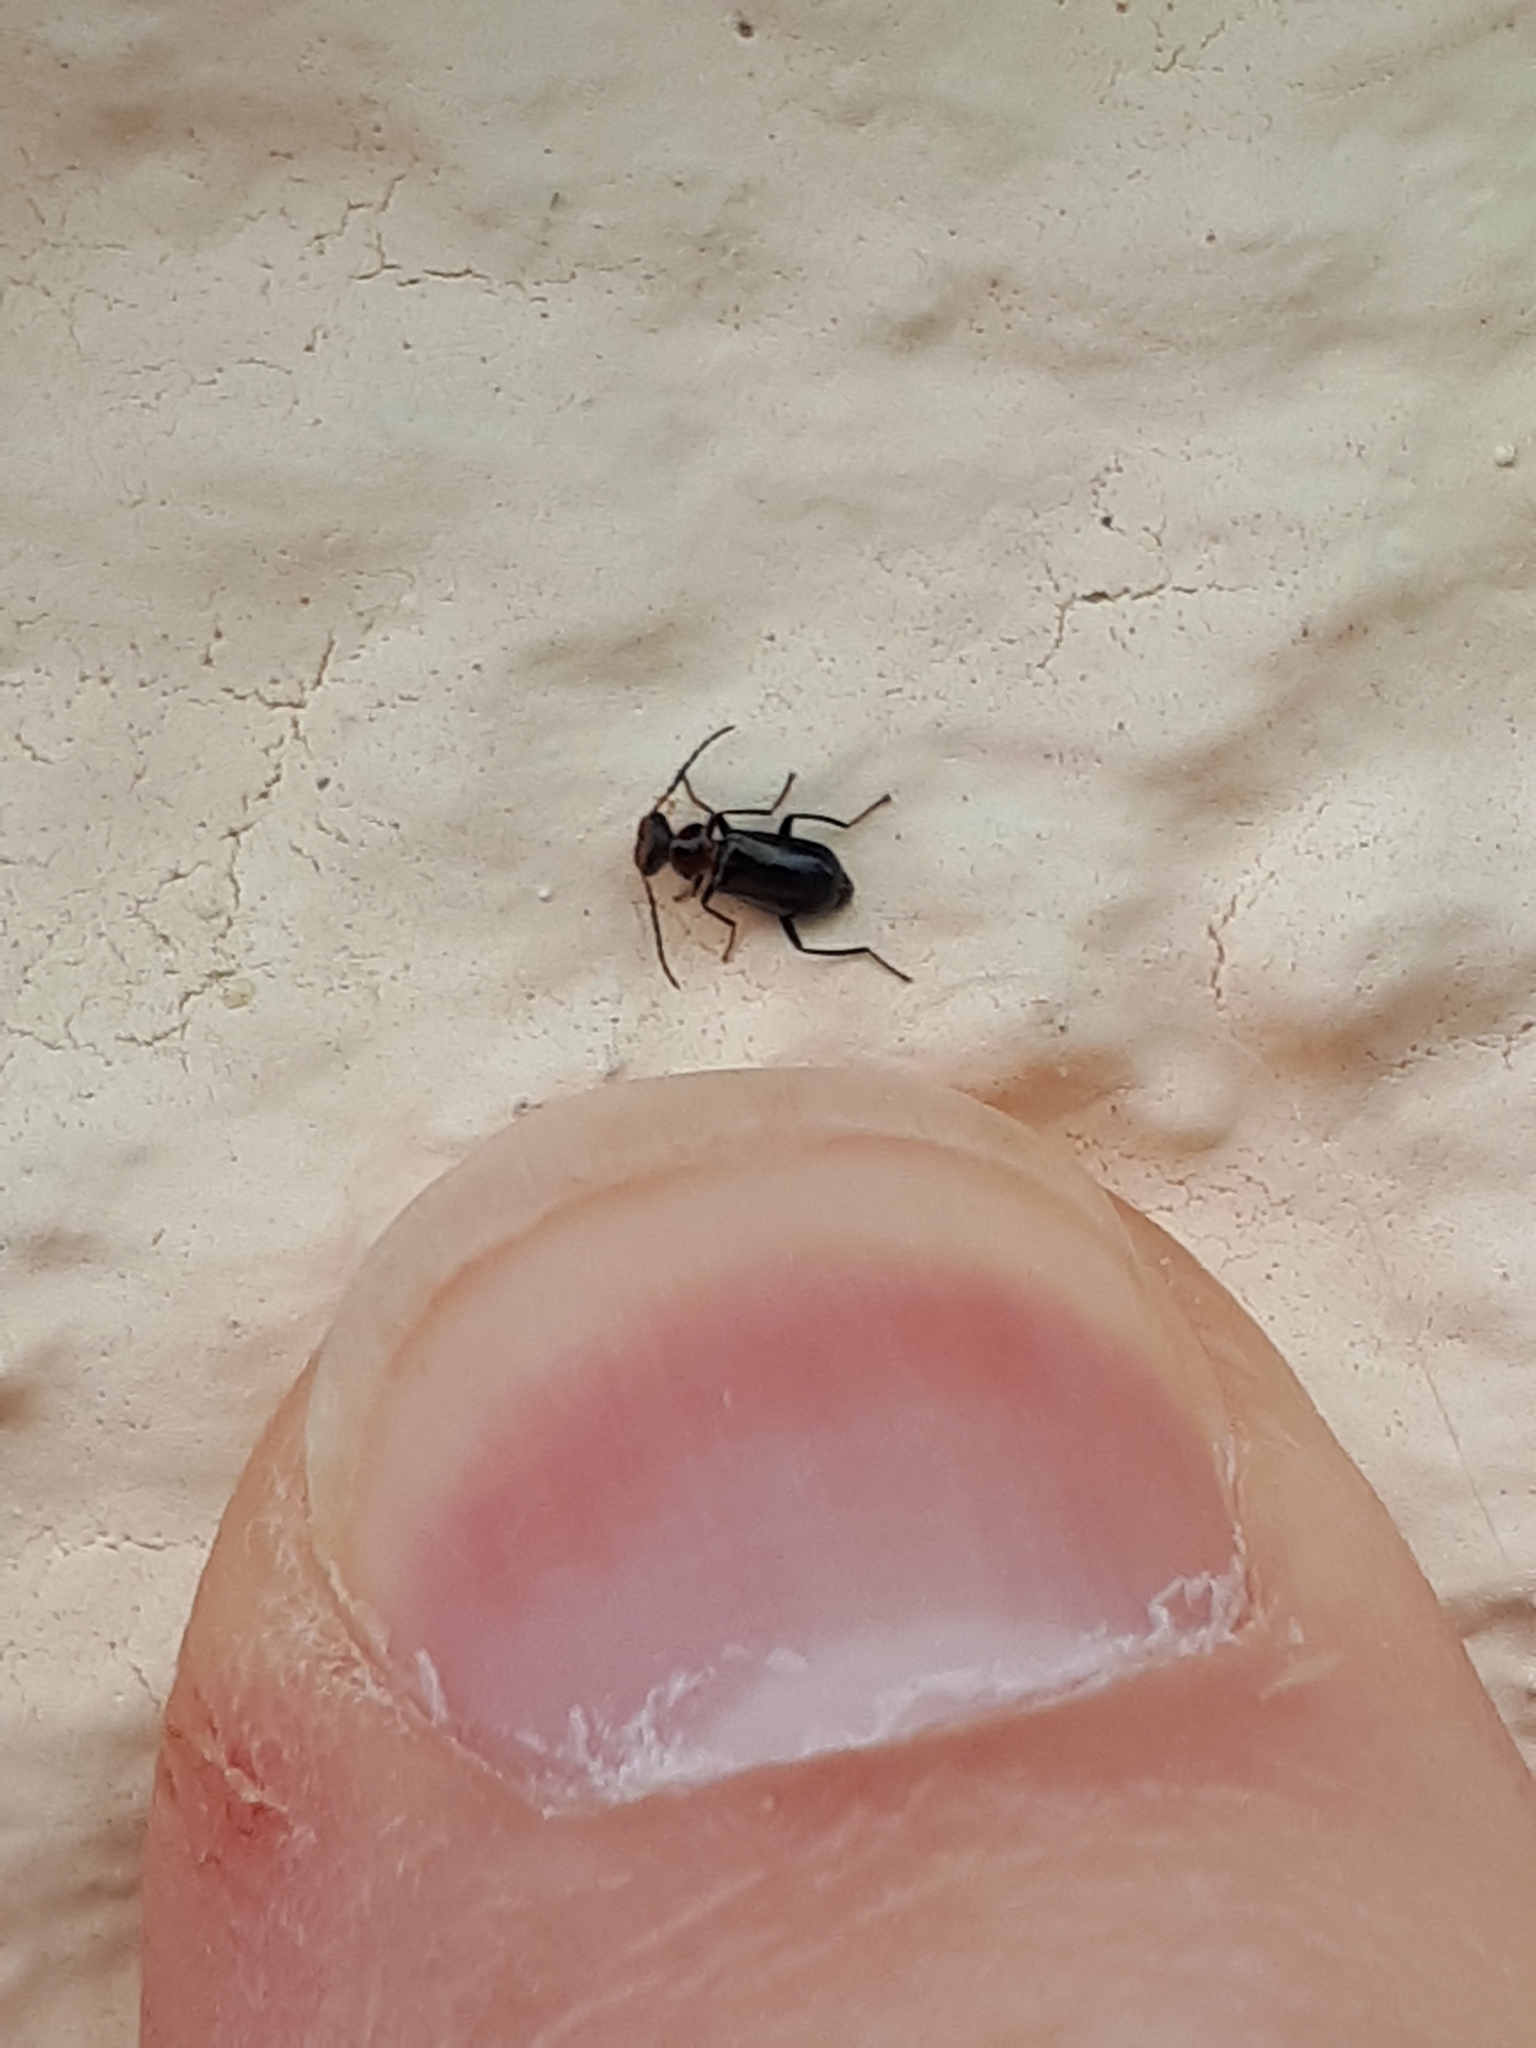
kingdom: Animalia
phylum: Arthropoda
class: Insecta
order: Coleoptera
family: Melyridae
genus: Troglops
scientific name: Troglops albicans
